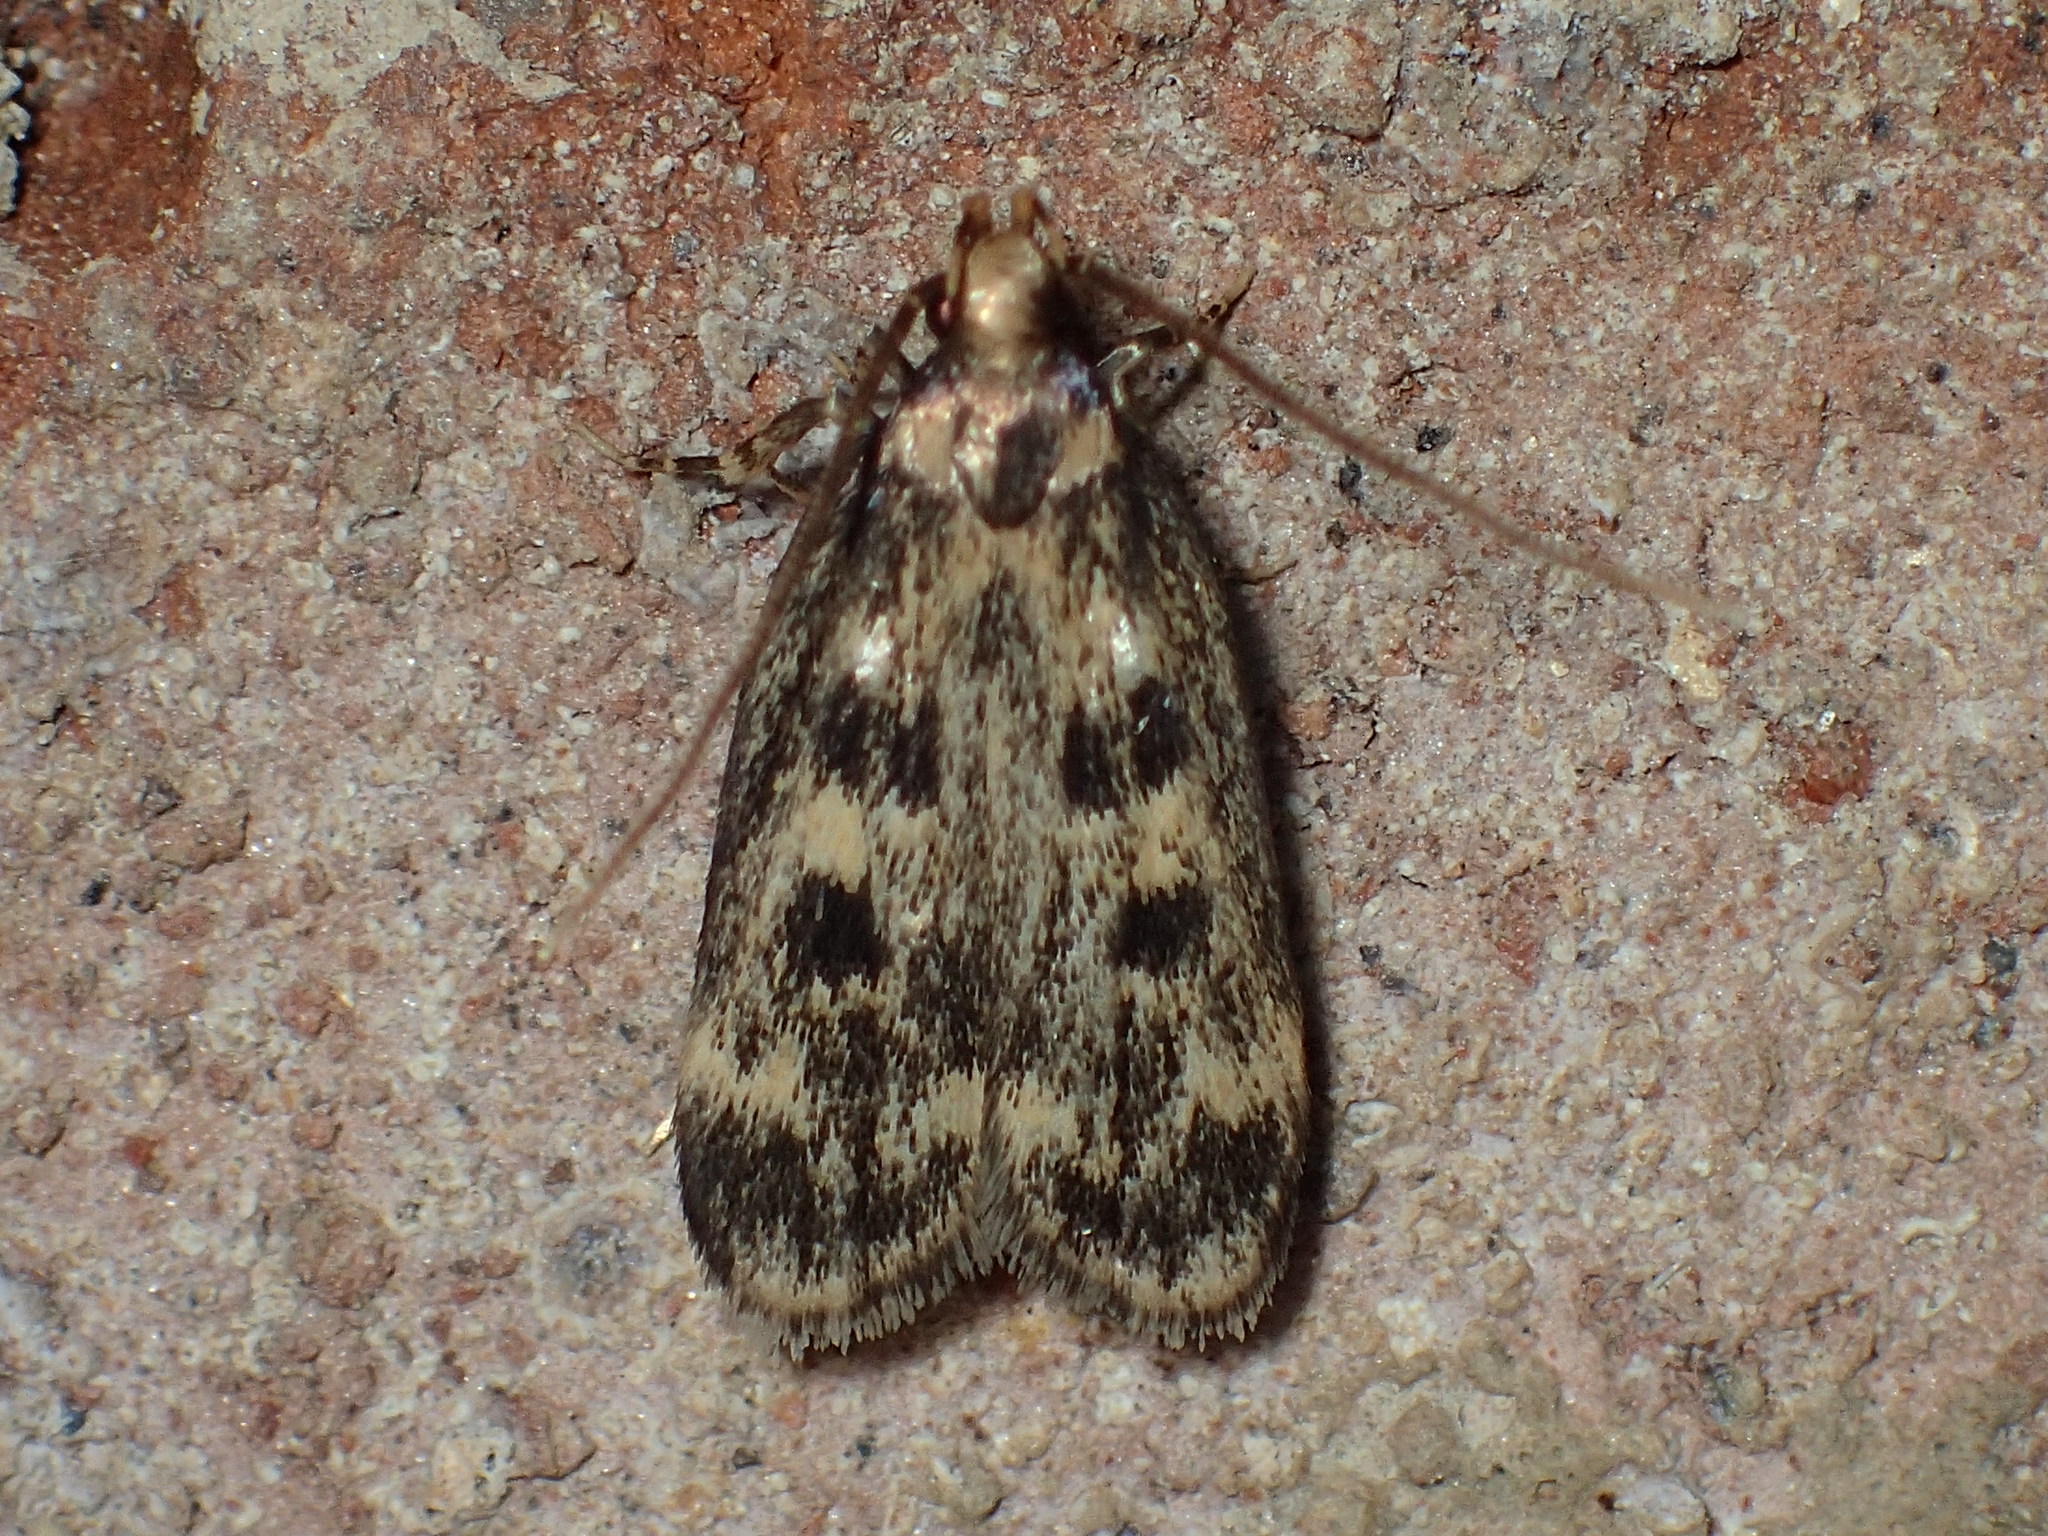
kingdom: Animalia
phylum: Arthropoda
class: Insecta
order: Lepidoptera
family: Lecithoceridae
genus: Martyringa
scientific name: Martyringa latipennis
